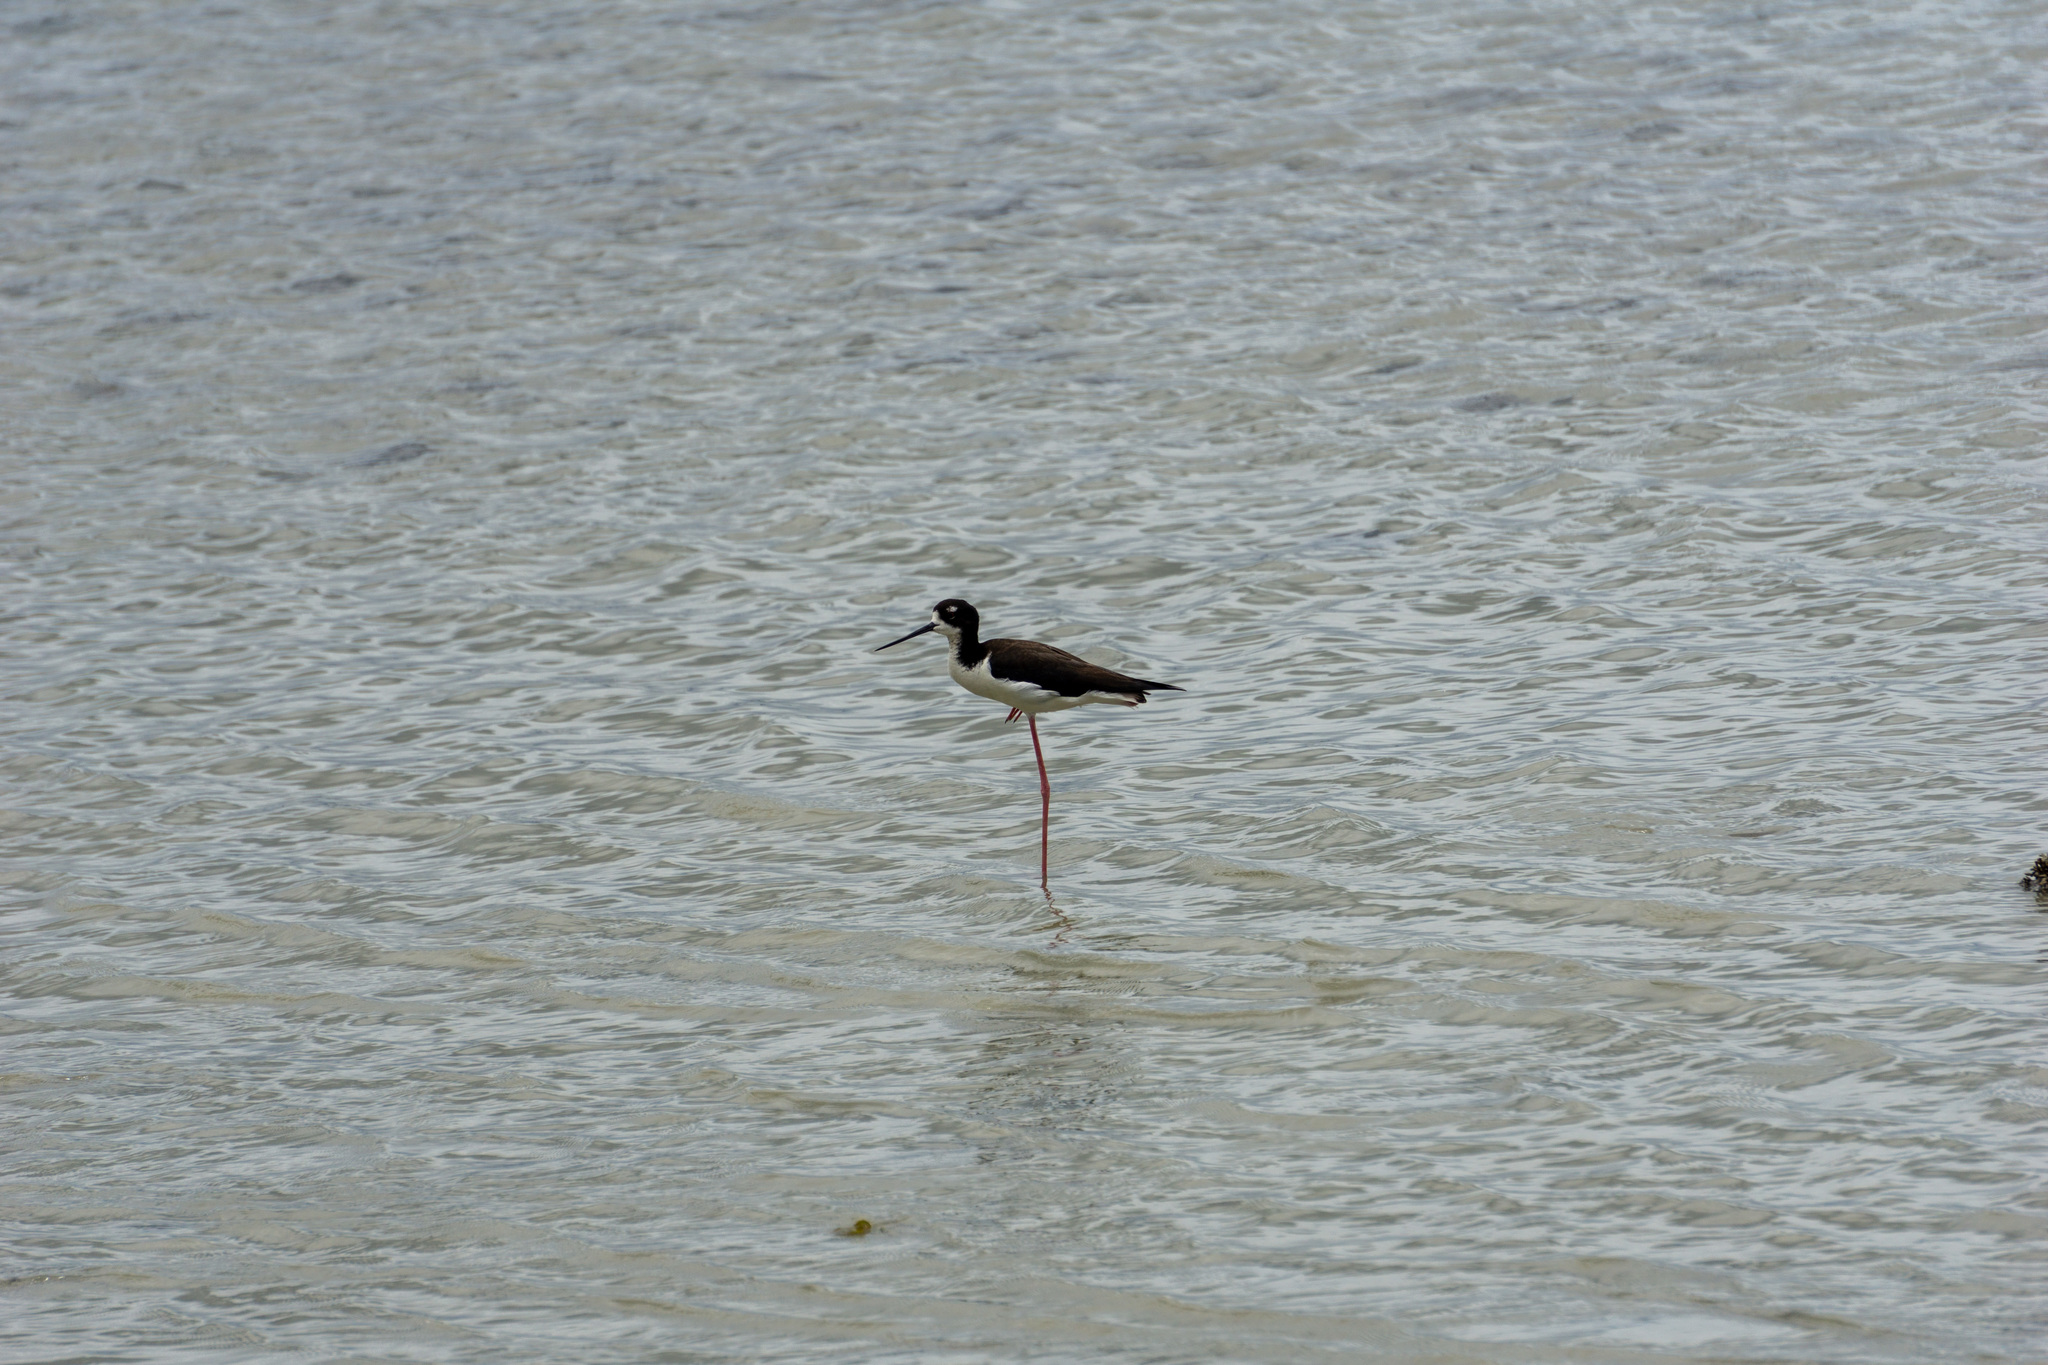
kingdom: Animalia
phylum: Chordata
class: Aves
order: Charadriiformes
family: Recurvirostridae
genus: Himantopus
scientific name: Himantopus mexicanus
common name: Black-necked stilt
